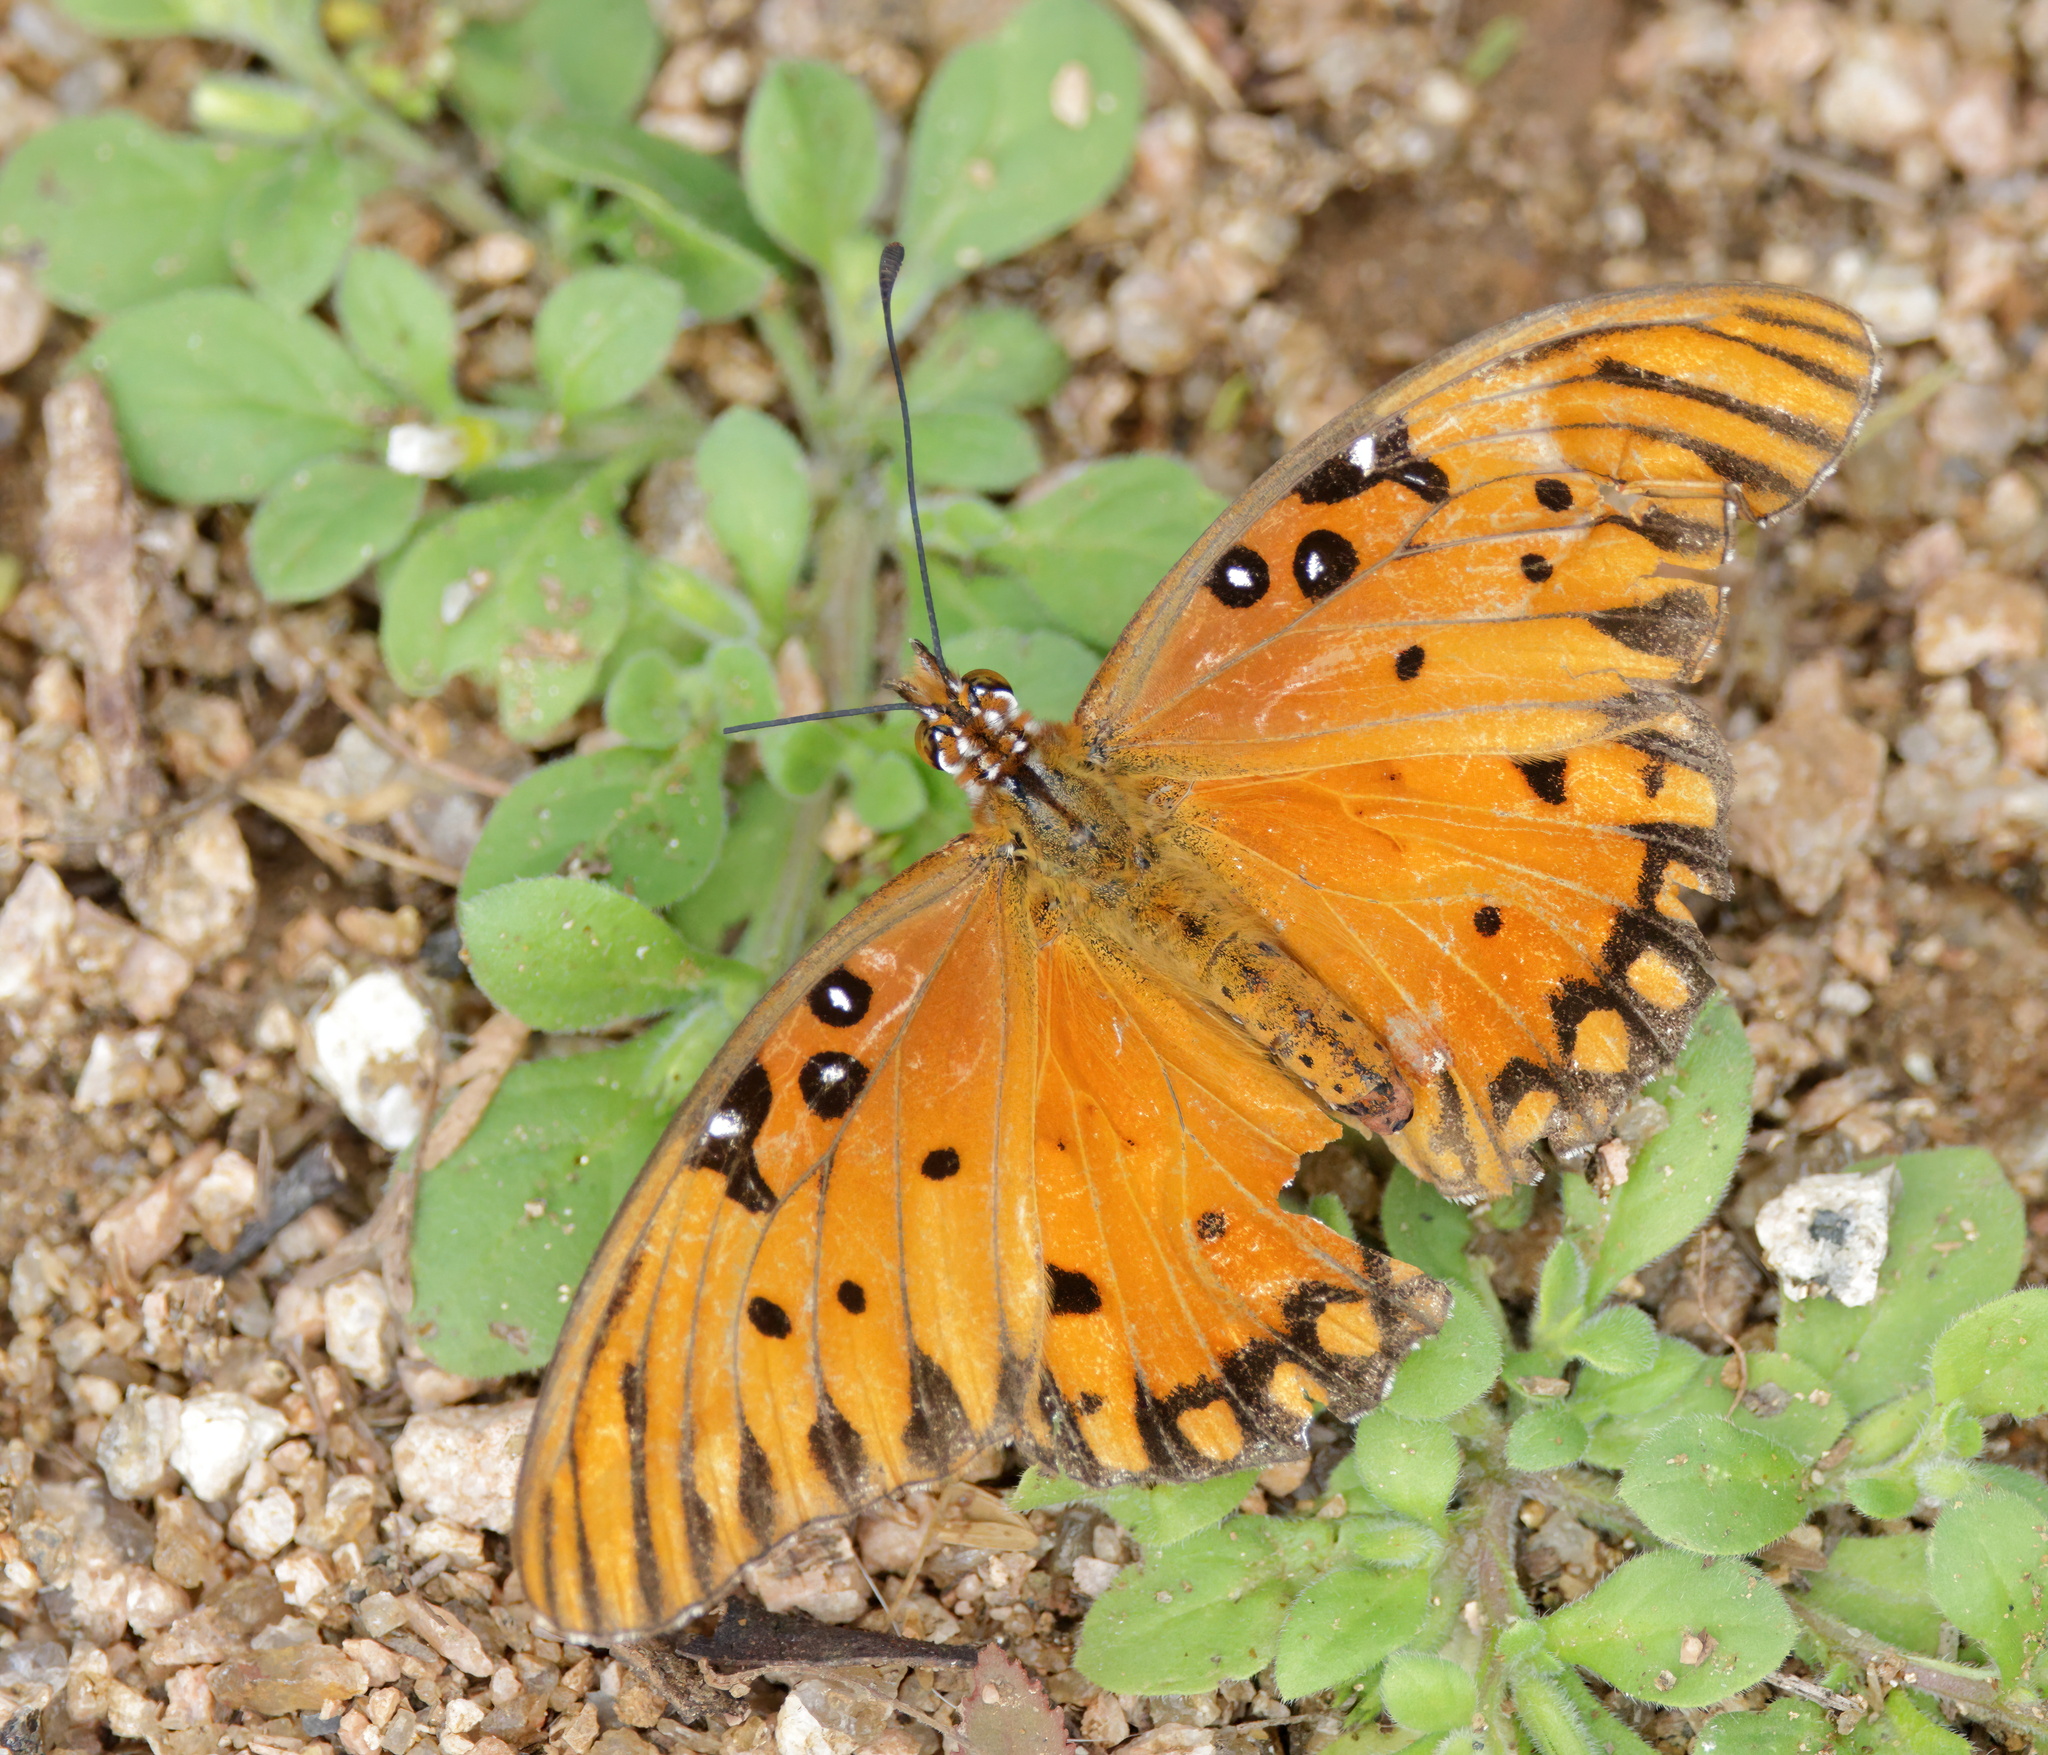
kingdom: Animalia
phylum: Arthropoda
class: Insecta
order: Lepidoptera
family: Nymphalidae
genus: Dione
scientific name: Dione vanillae
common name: Gulf fritillary
